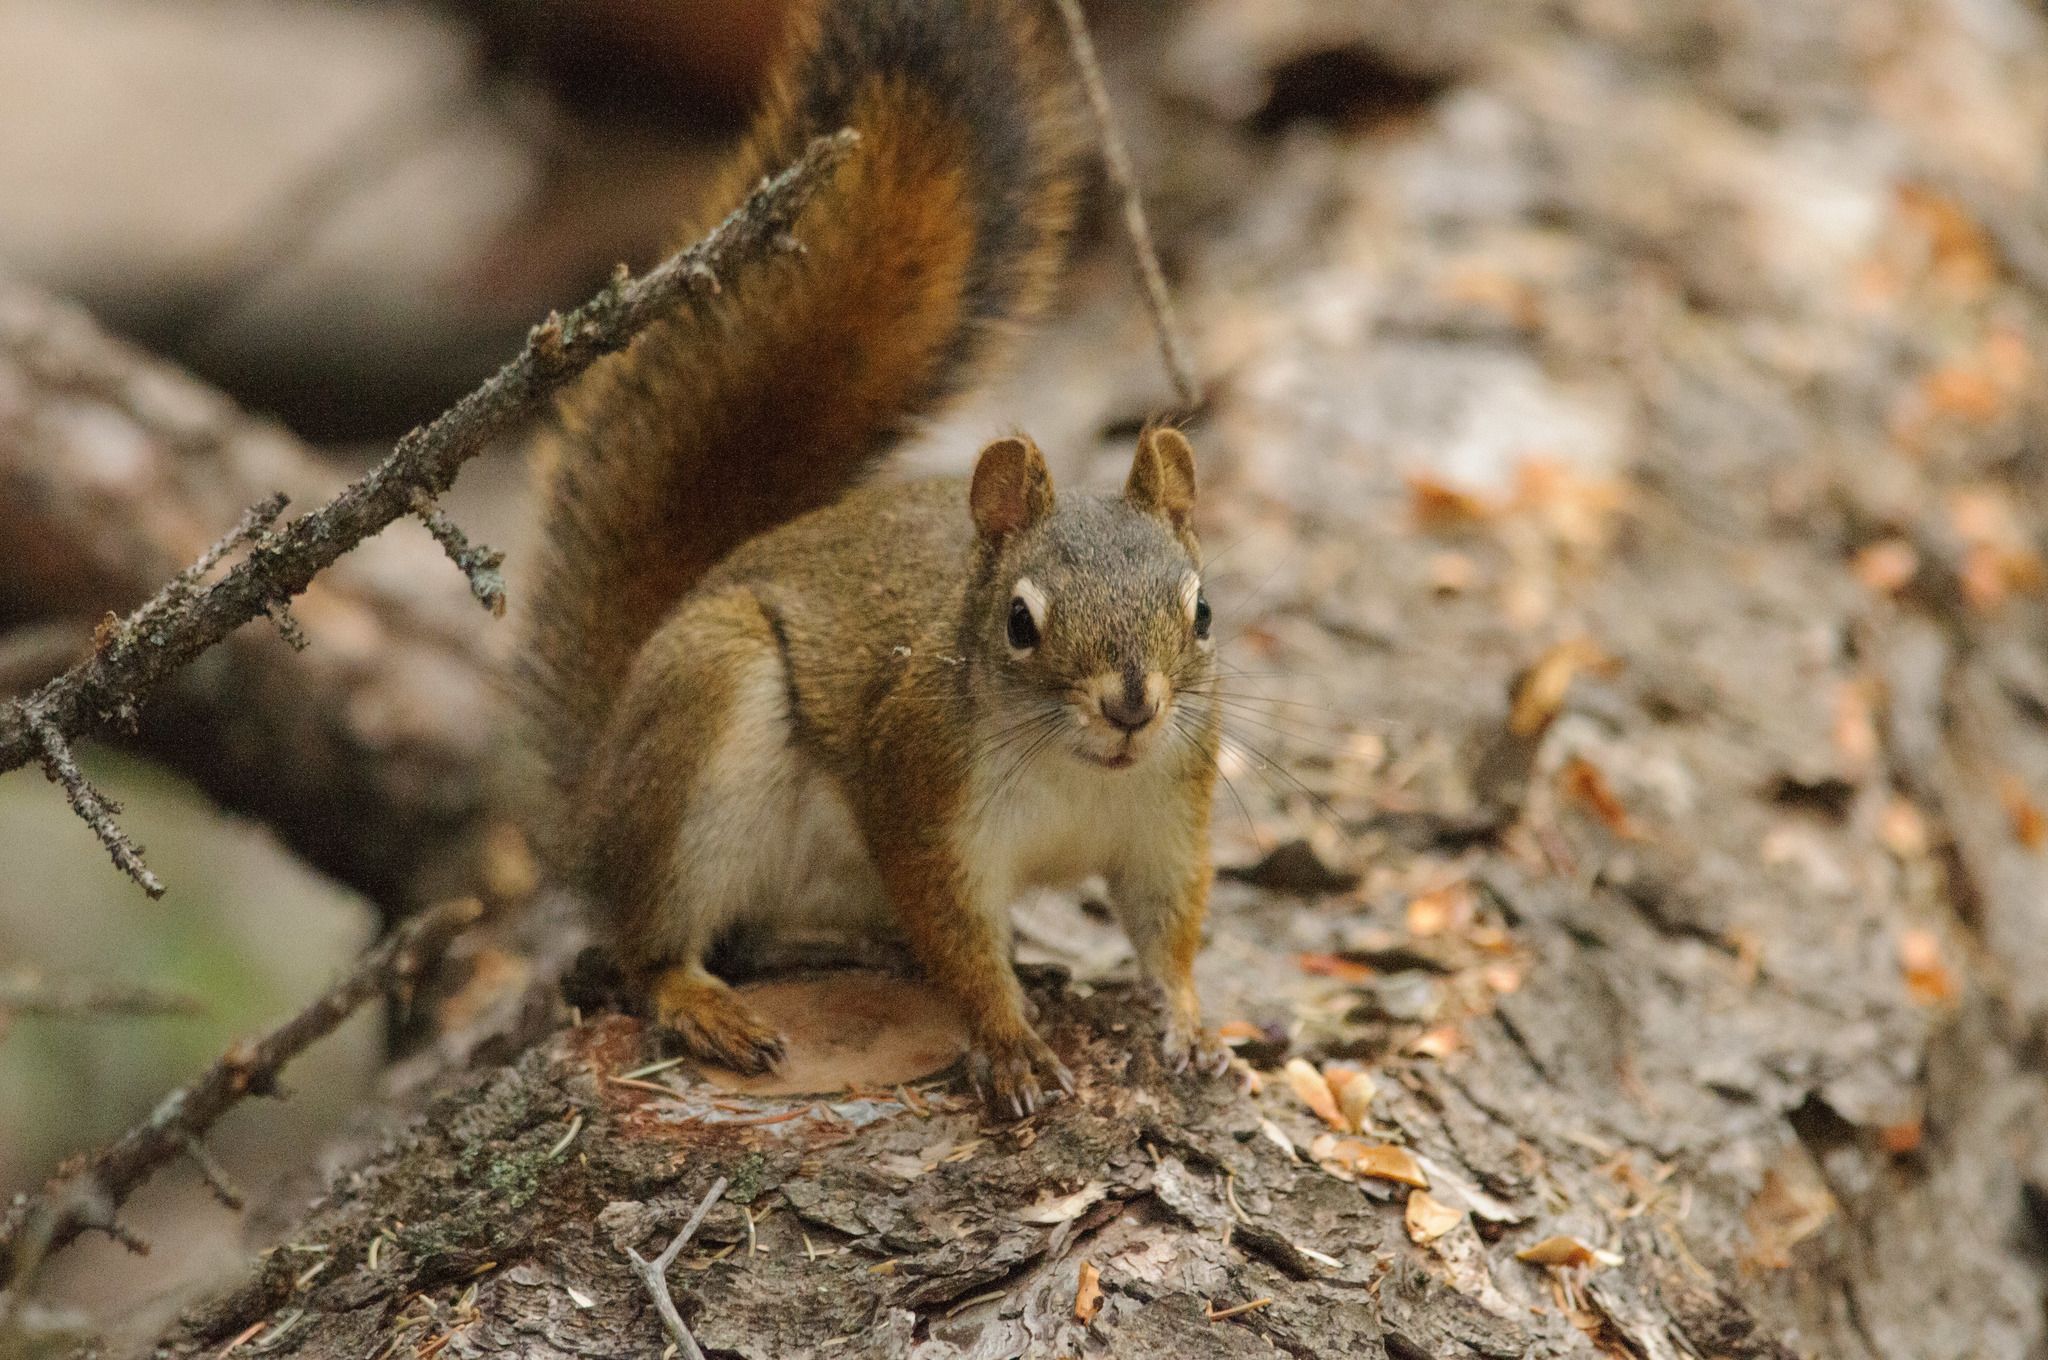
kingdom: Animalia
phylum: Chordata
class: Mammalia
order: Rodentia
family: Sciuridae
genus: Tamiasciurus
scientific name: Tamiasciurus hudsonicus
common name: Red squirrel
